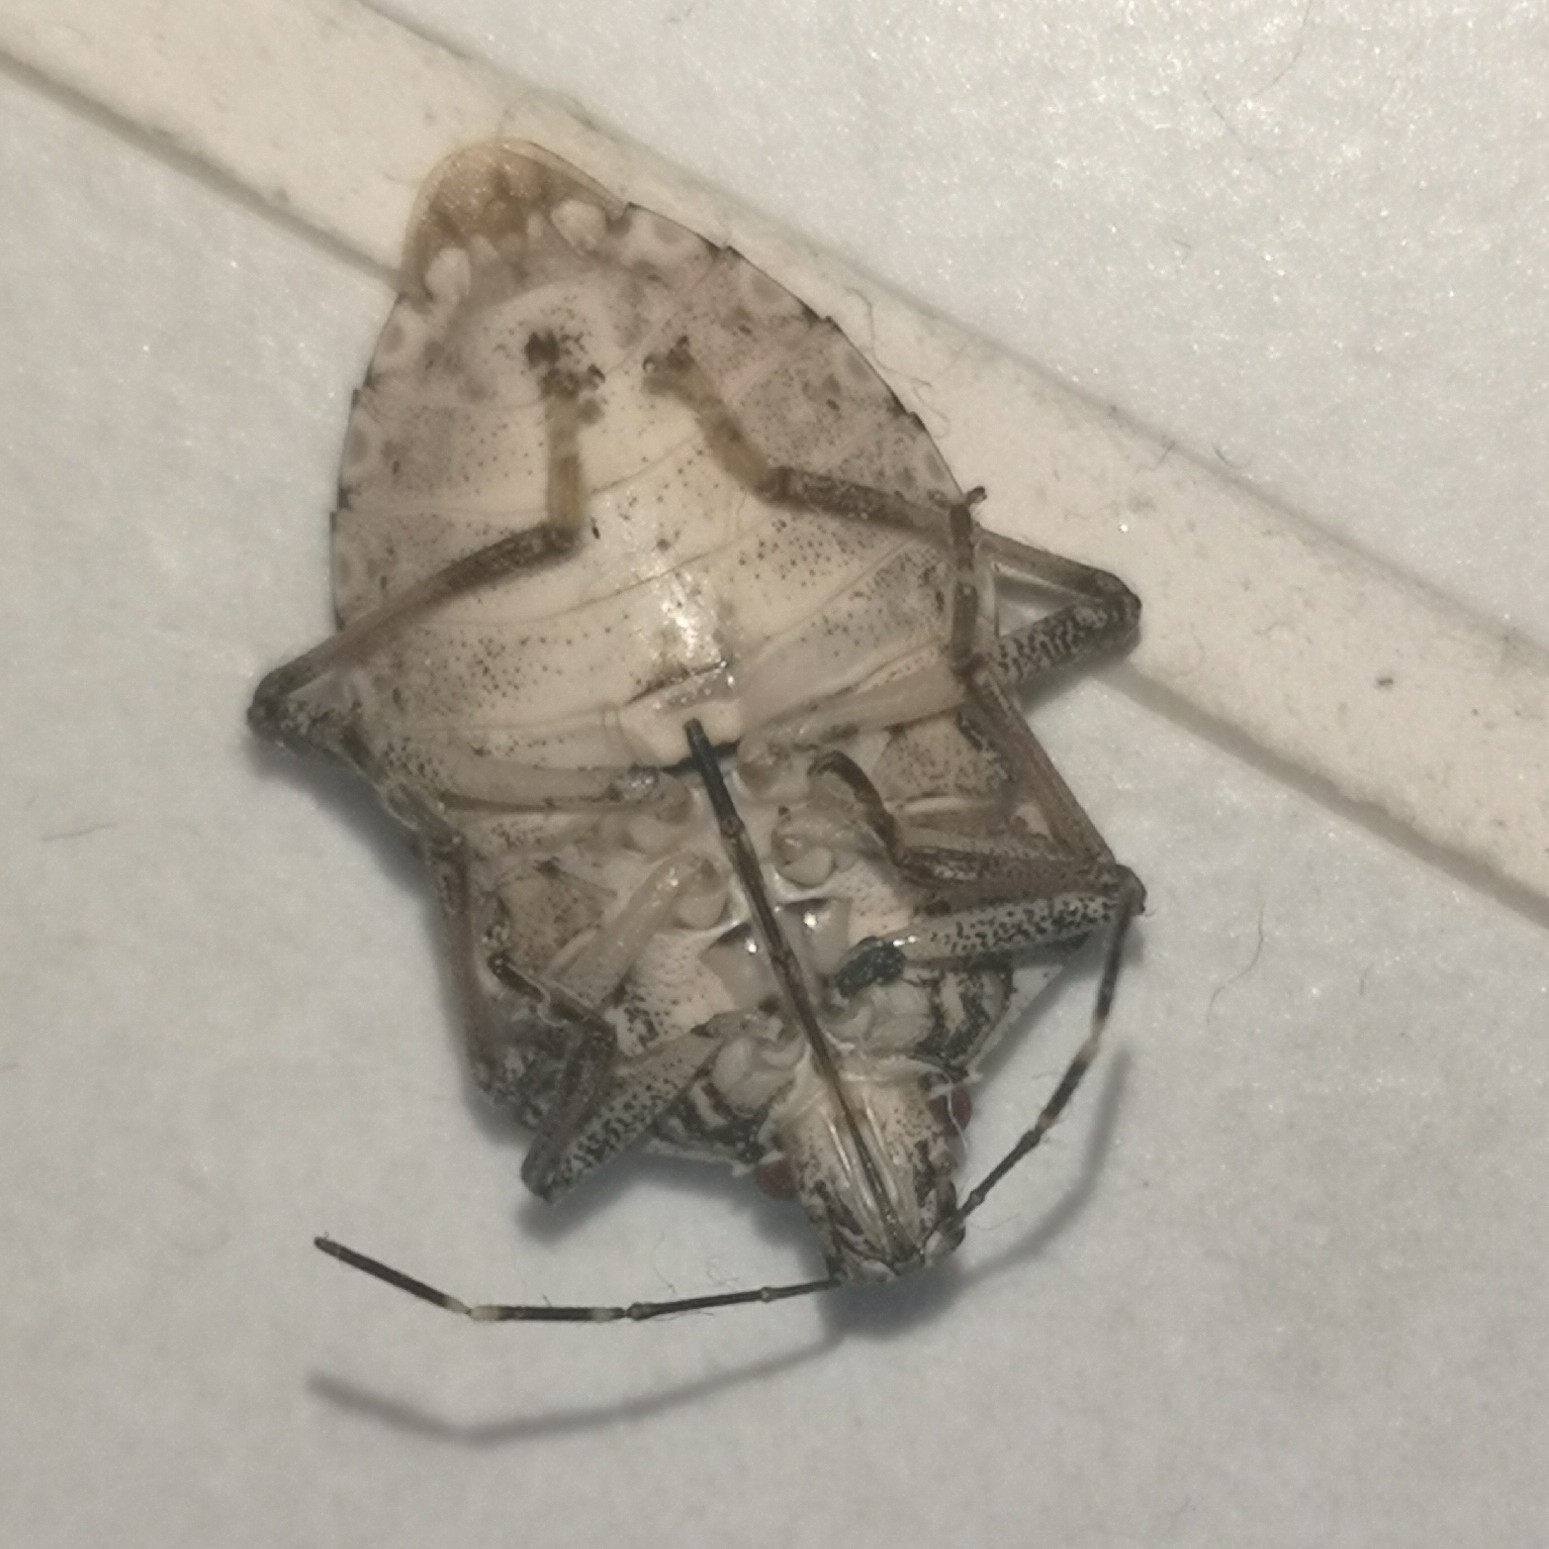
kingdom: Animalia
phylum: Arthropoda
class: Insecta
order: Hemiptera
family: Pentatomidae
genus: Halyomorpha
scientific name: Halyomorpha halys
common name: Brown marmorated stink bug
